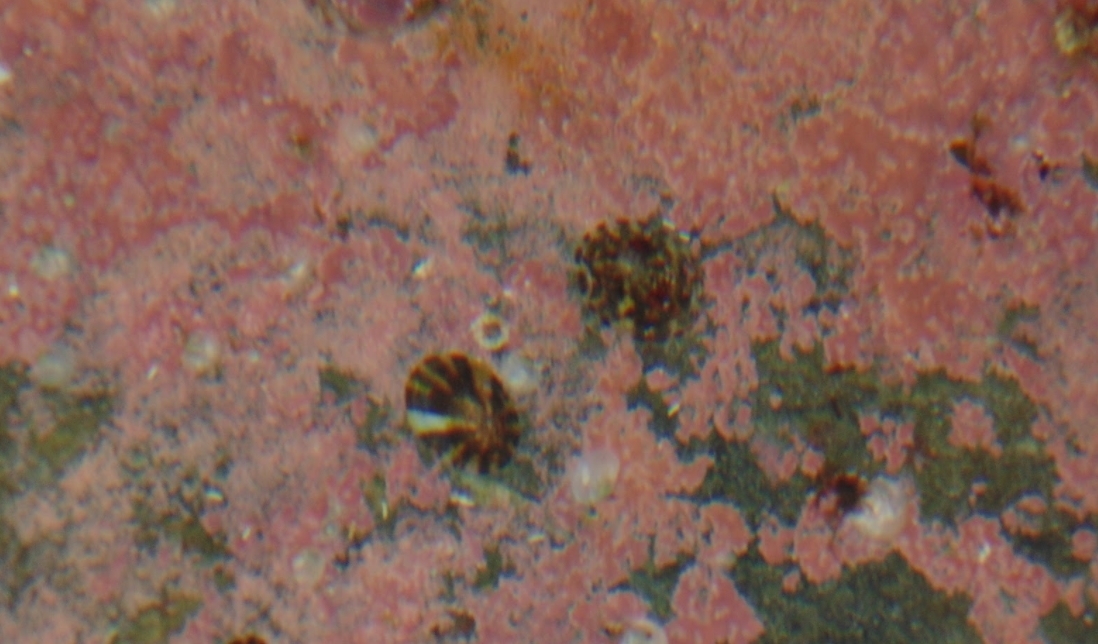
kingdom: Animalia
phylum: Mollusca
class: Gastropoda
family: Lottiidae
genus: Testudinalia
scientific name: Testudinalia testudinalis
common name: Common tortoiseshell limpet
